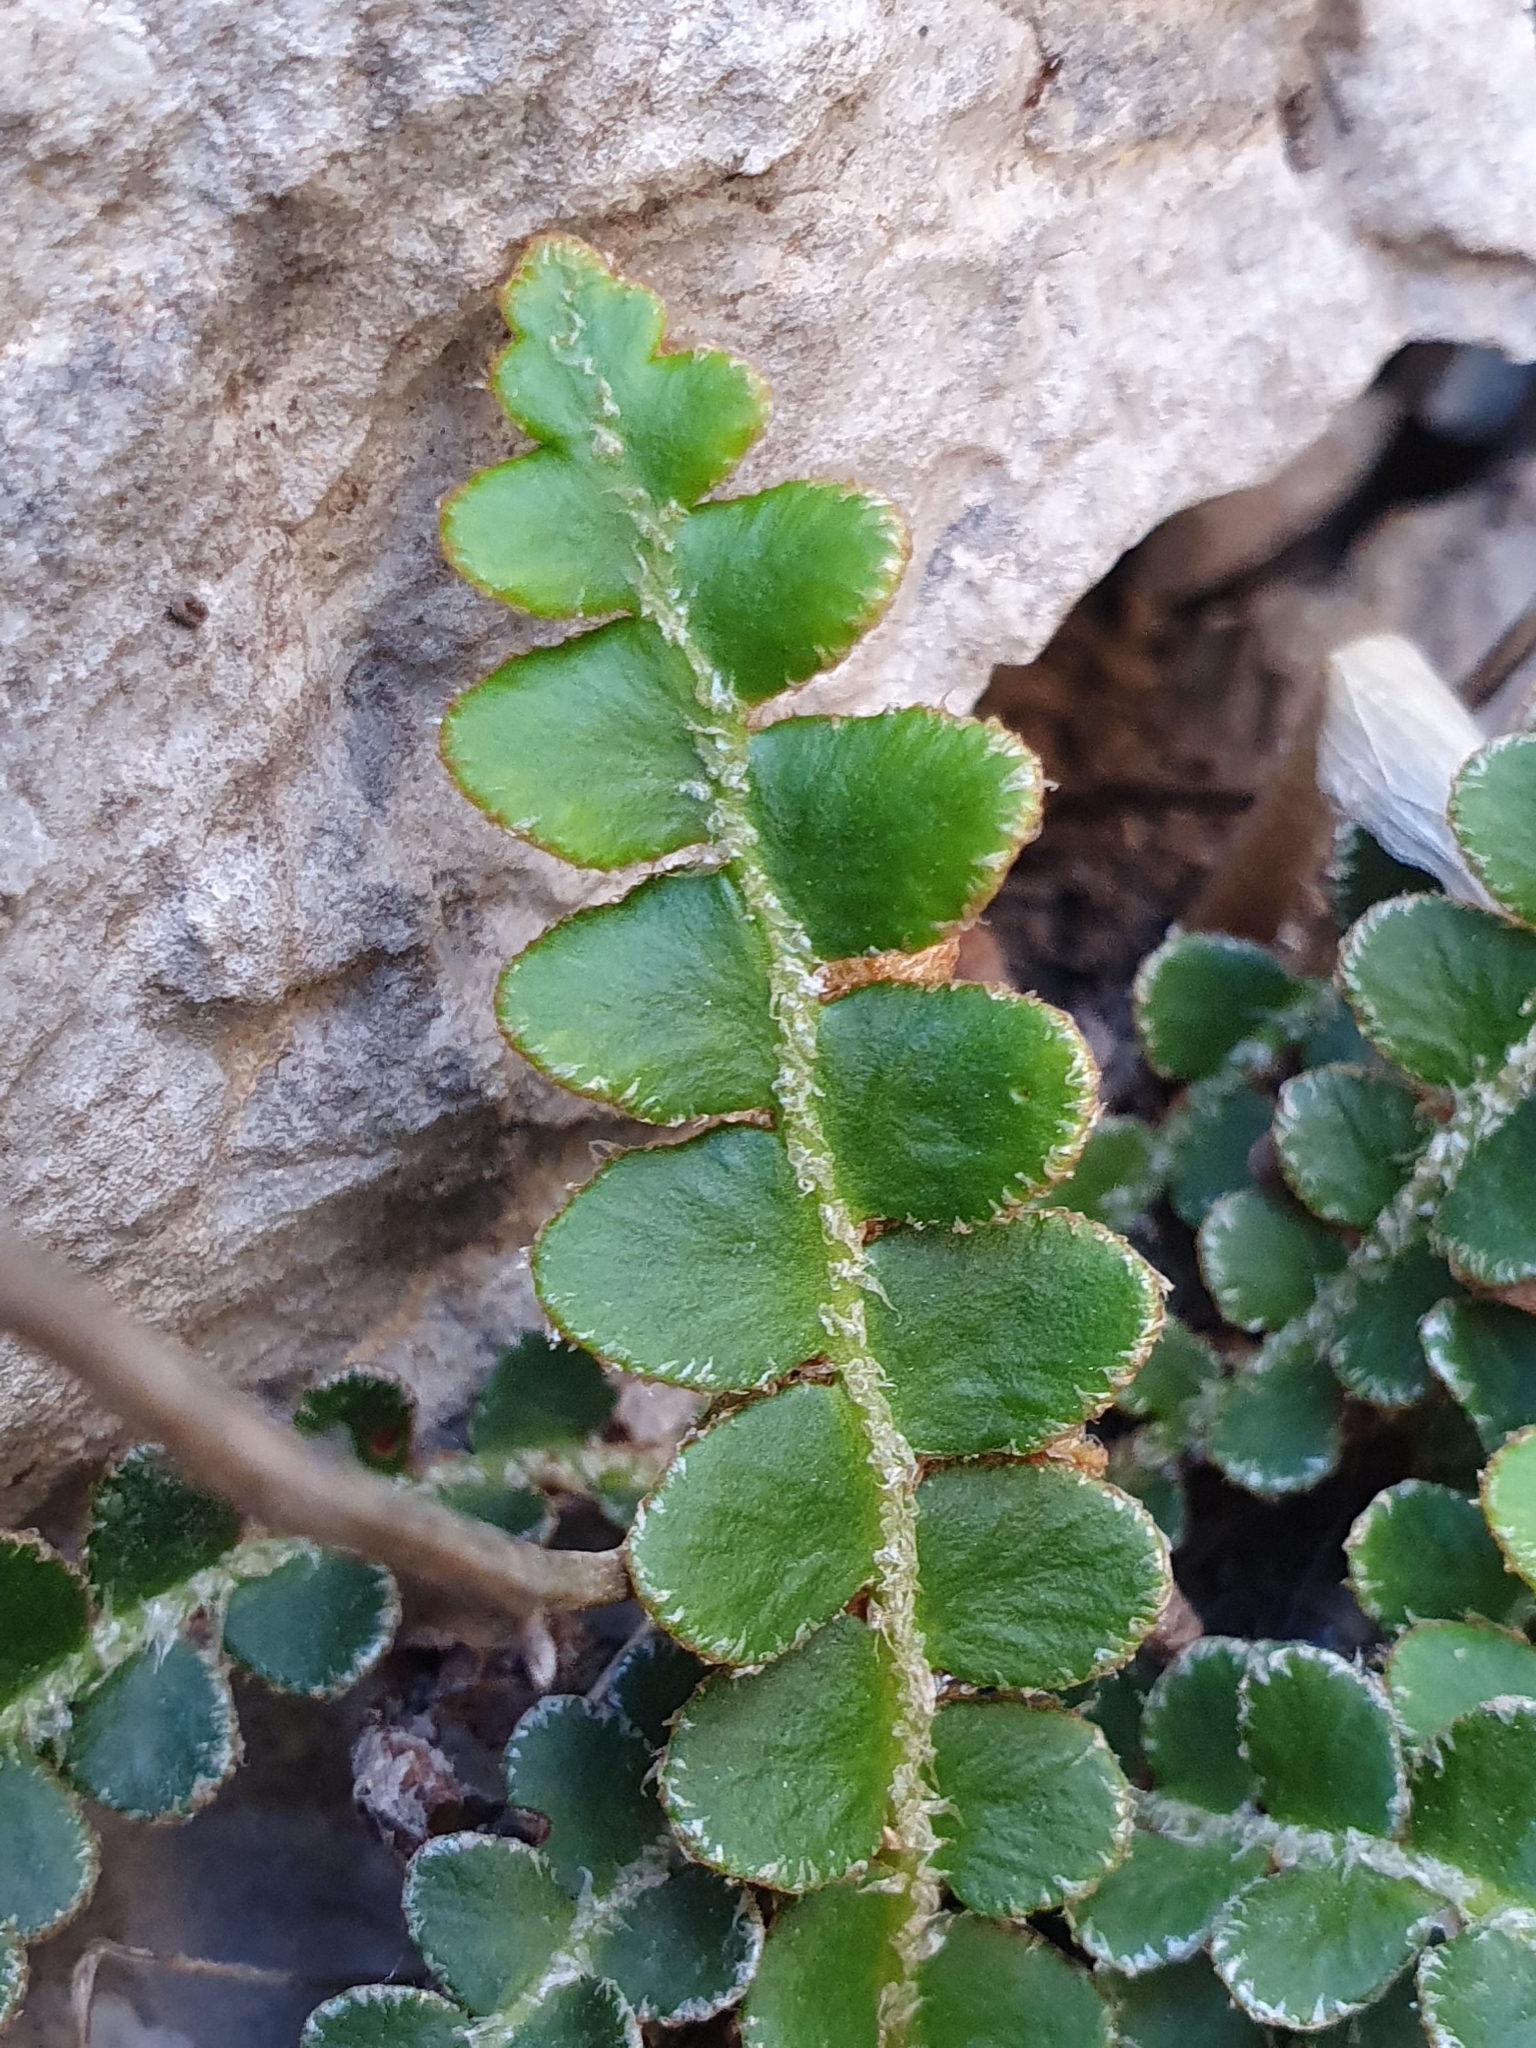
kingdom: Plantae
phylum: Tracheophyta
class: Polypodiopsida
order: Polypodiales
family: Aspleniaceae
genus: Asplenium
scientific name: Asplenium ceterach
